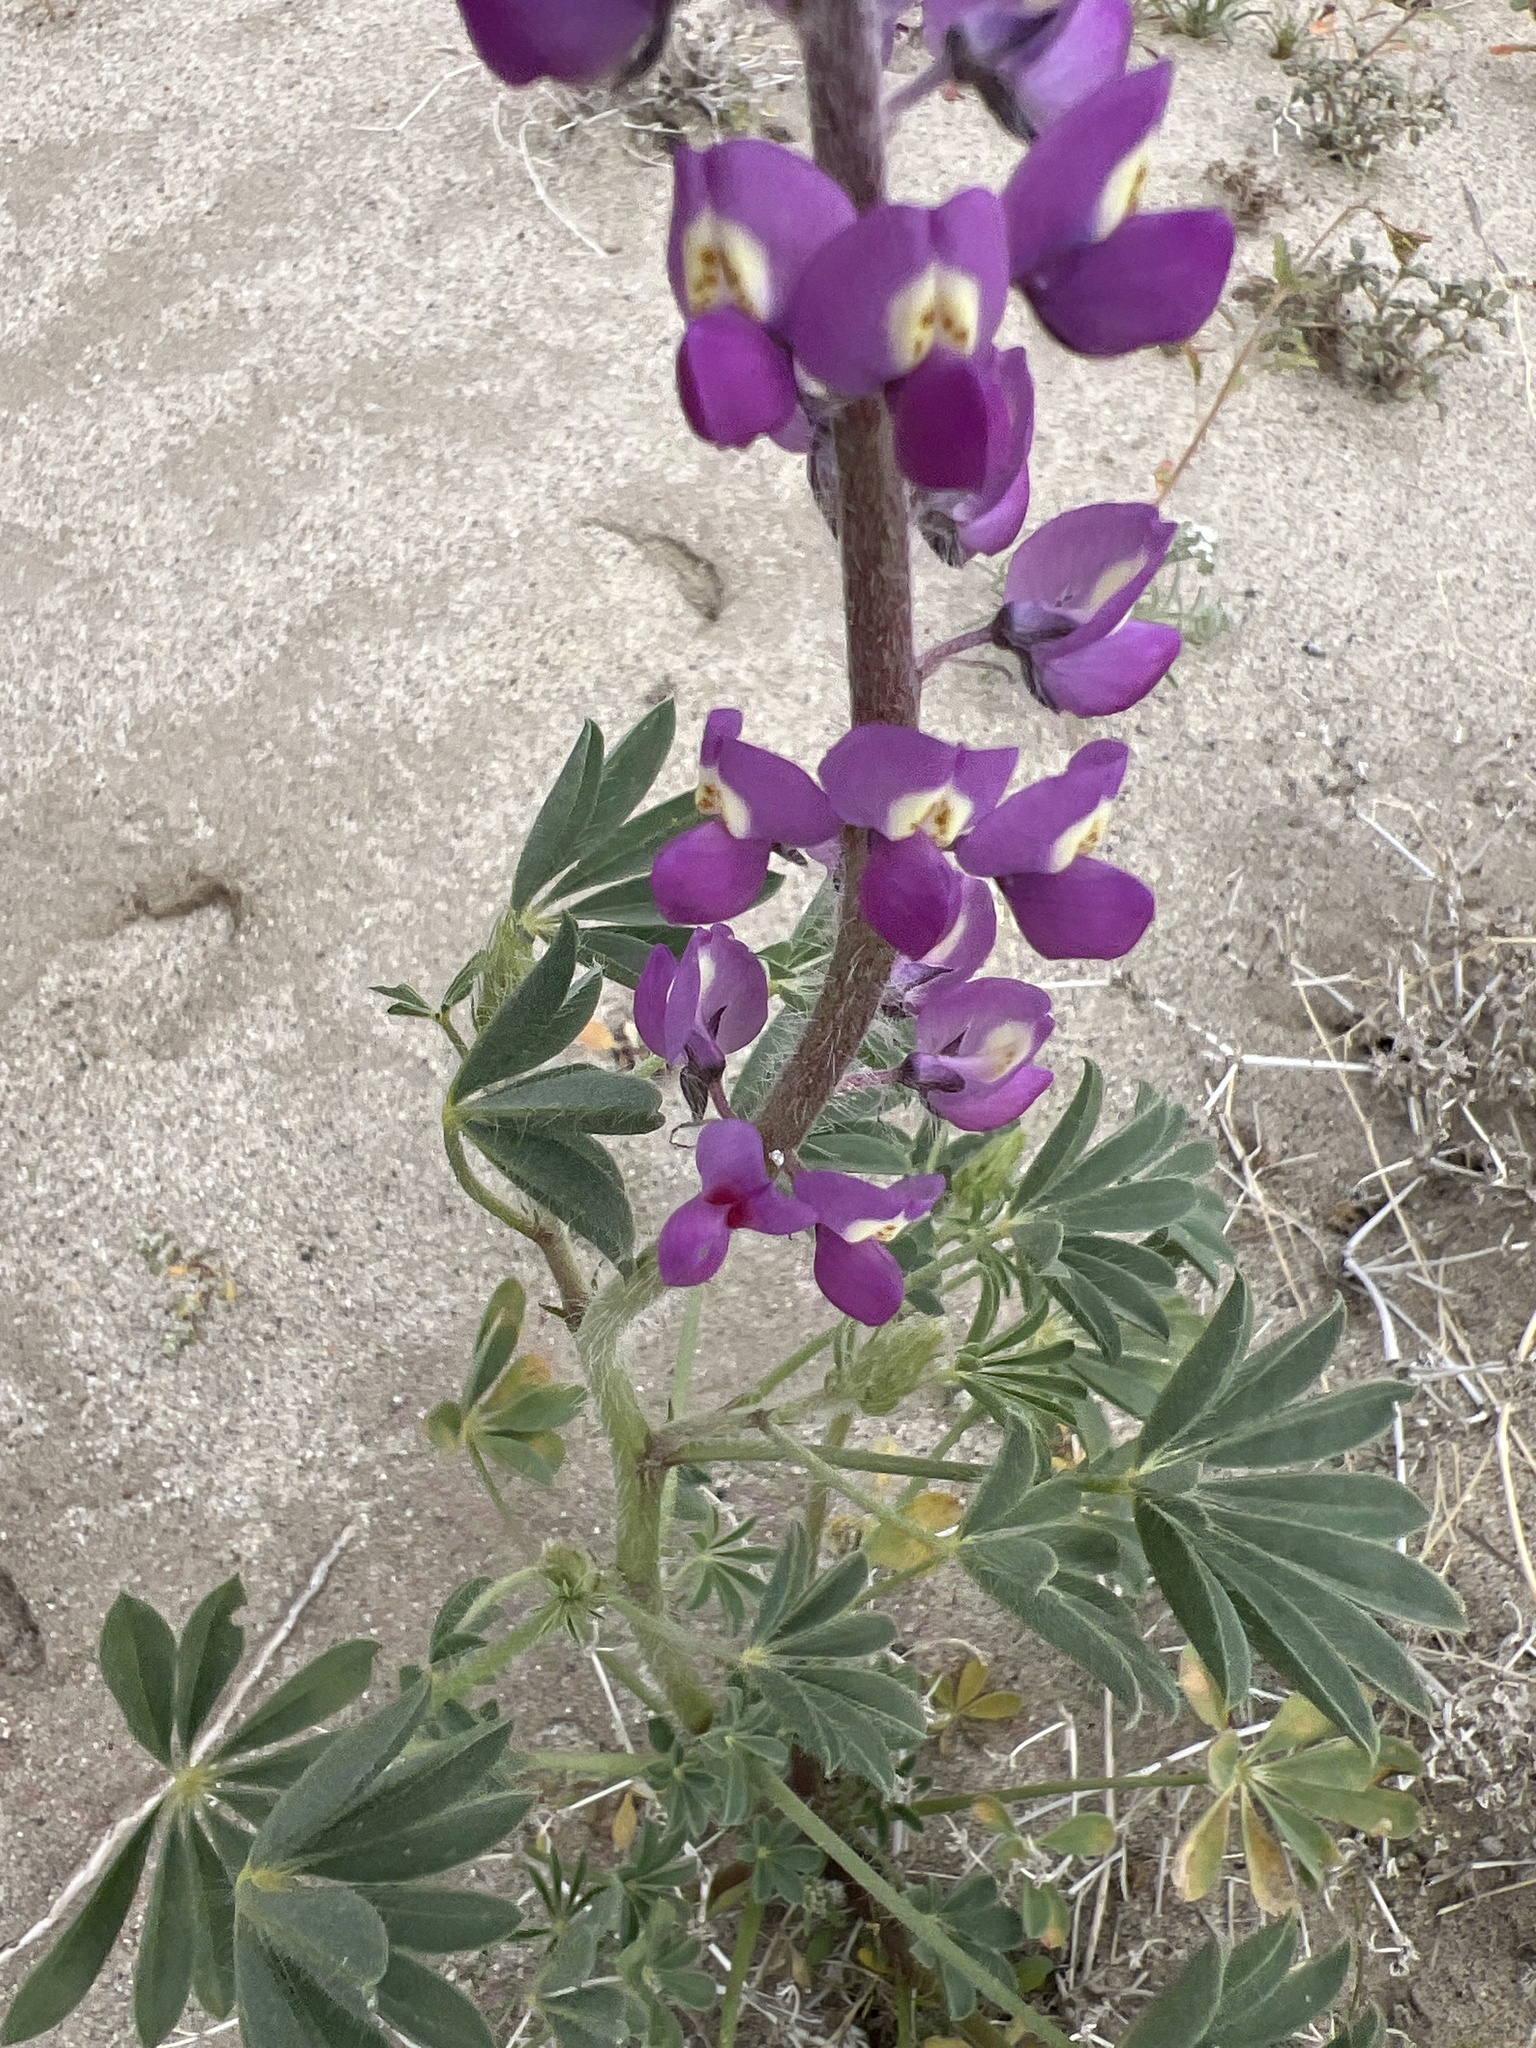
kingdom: Plantae
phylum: Tracheophyta
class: Magnoliopsida
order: Fabales
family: Fabaceae
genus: Lupinus
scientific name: Lupinus arizonicus
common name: Arizona lupine
